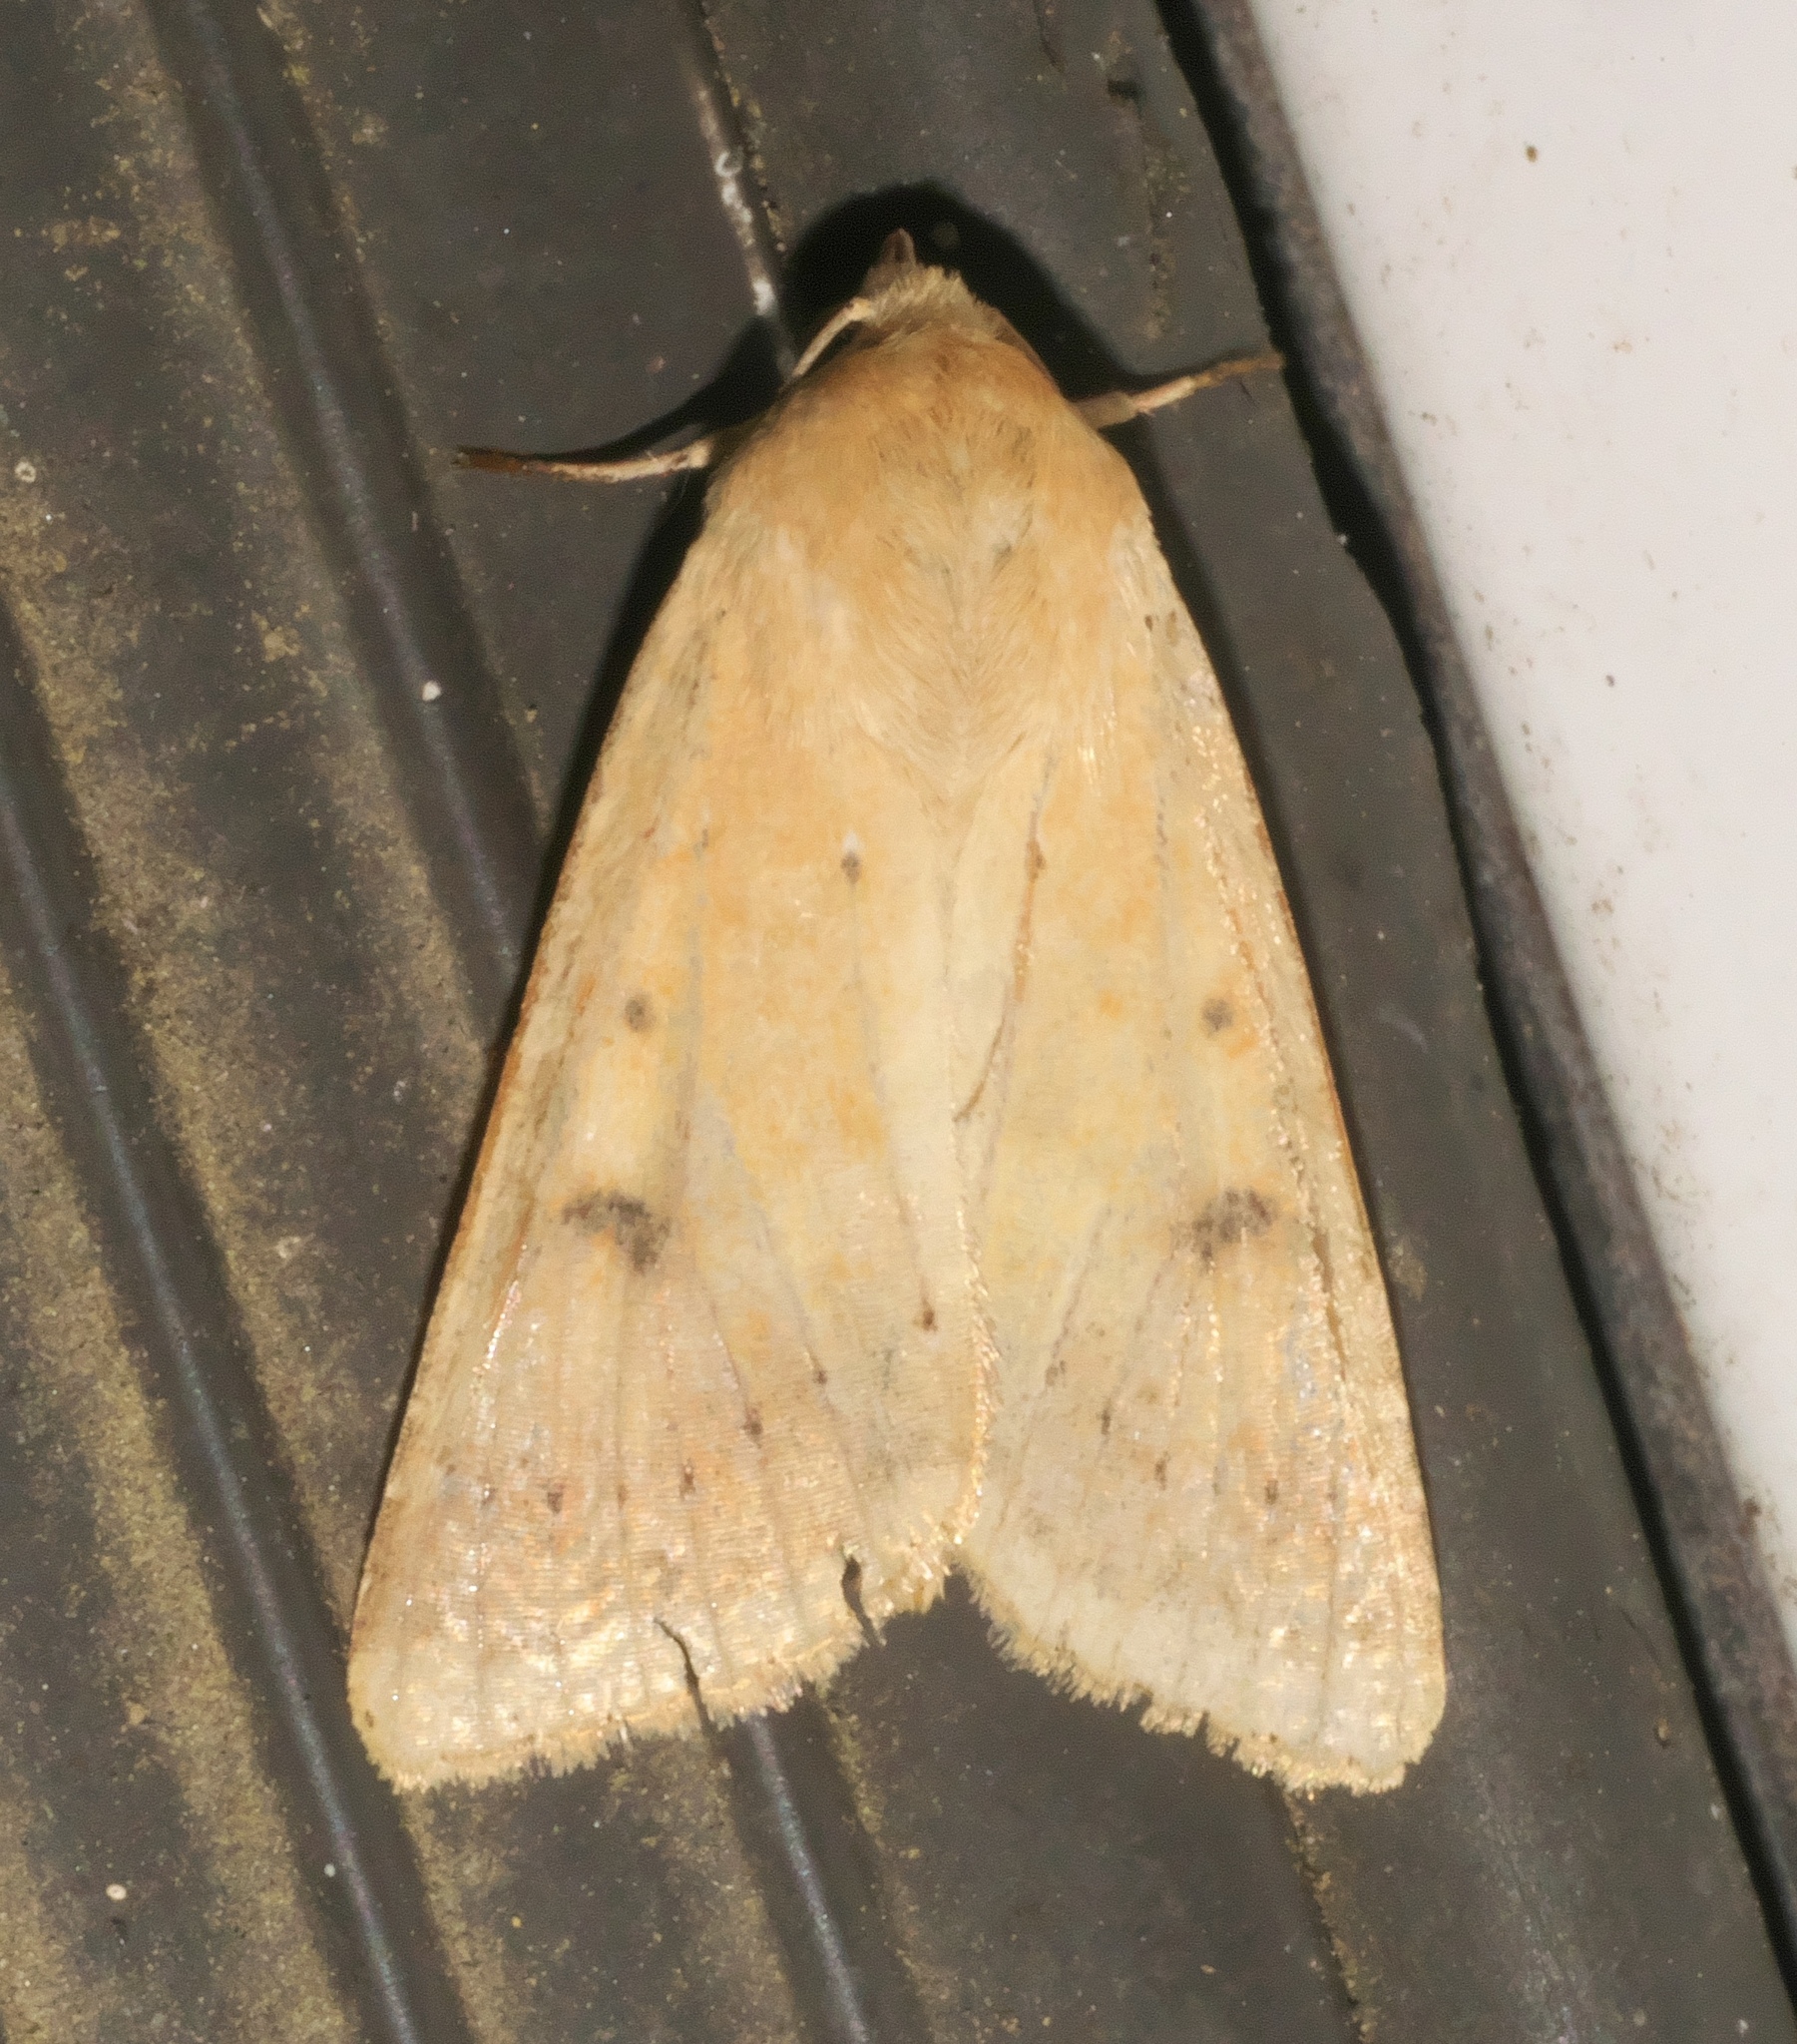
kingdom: Animalia
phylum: Arthropoda
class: Insecta
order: Lepidoptera
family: Noctuidae
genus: Helicoverpa
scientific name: Helicoverpa zea
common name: Bollworm
